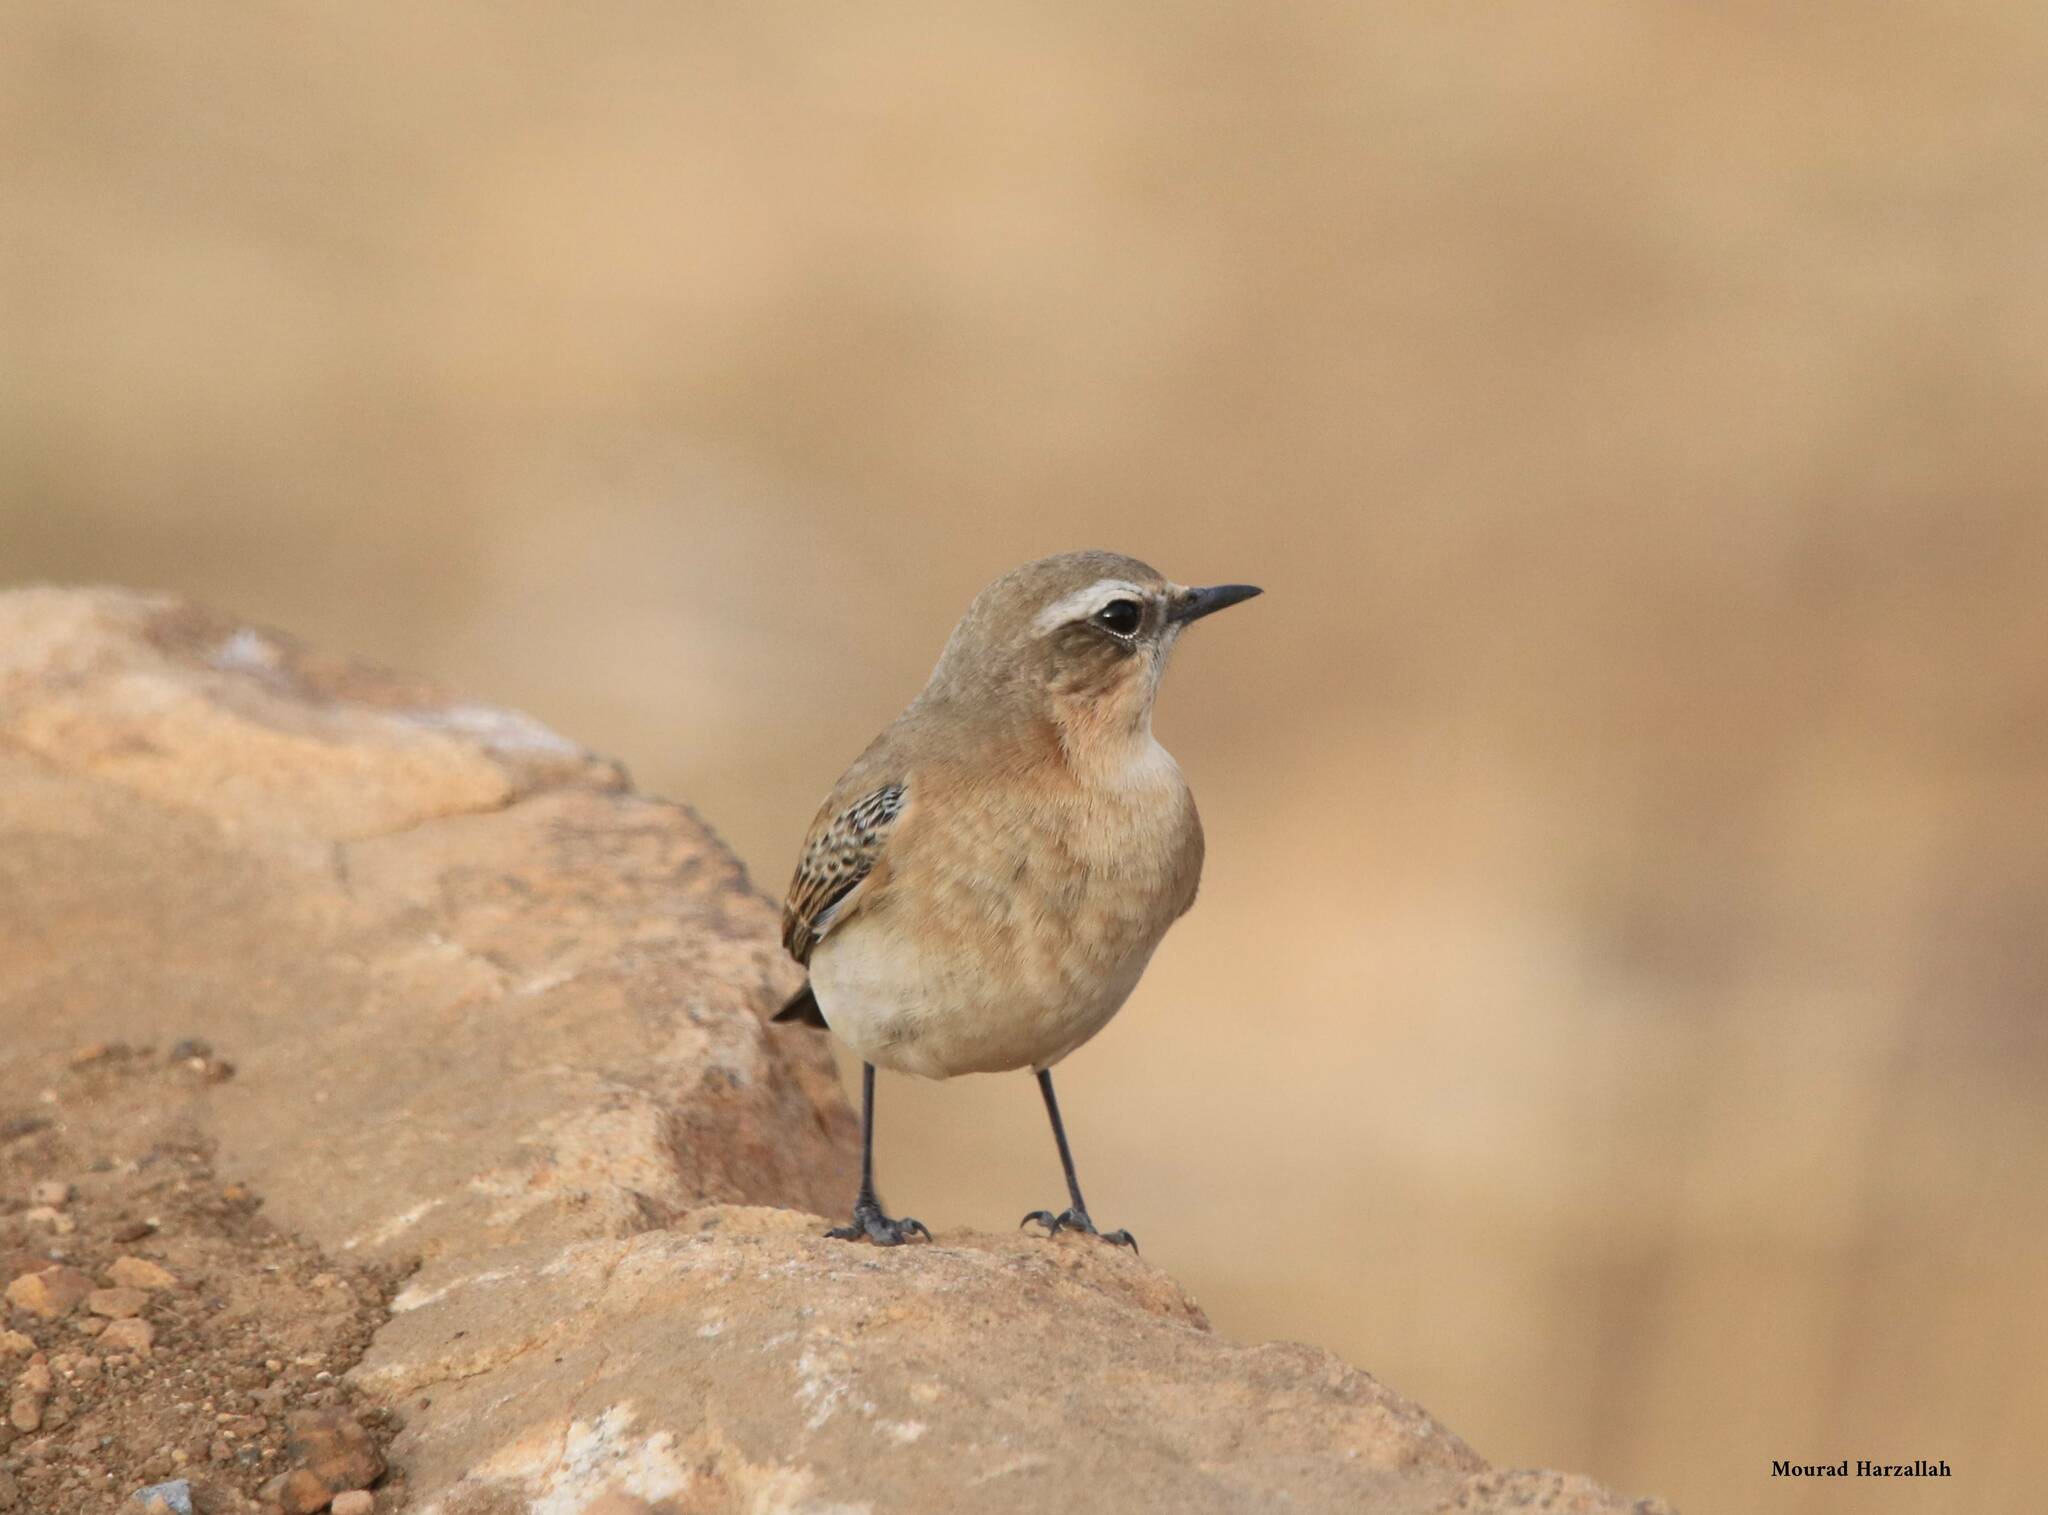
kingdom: Animalia
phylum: Chordata
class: Aves
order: Passeriformes
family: Muscicapidae
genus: Oenanthe
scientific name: Oenanthe oenanthe
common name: Northern wheatear
